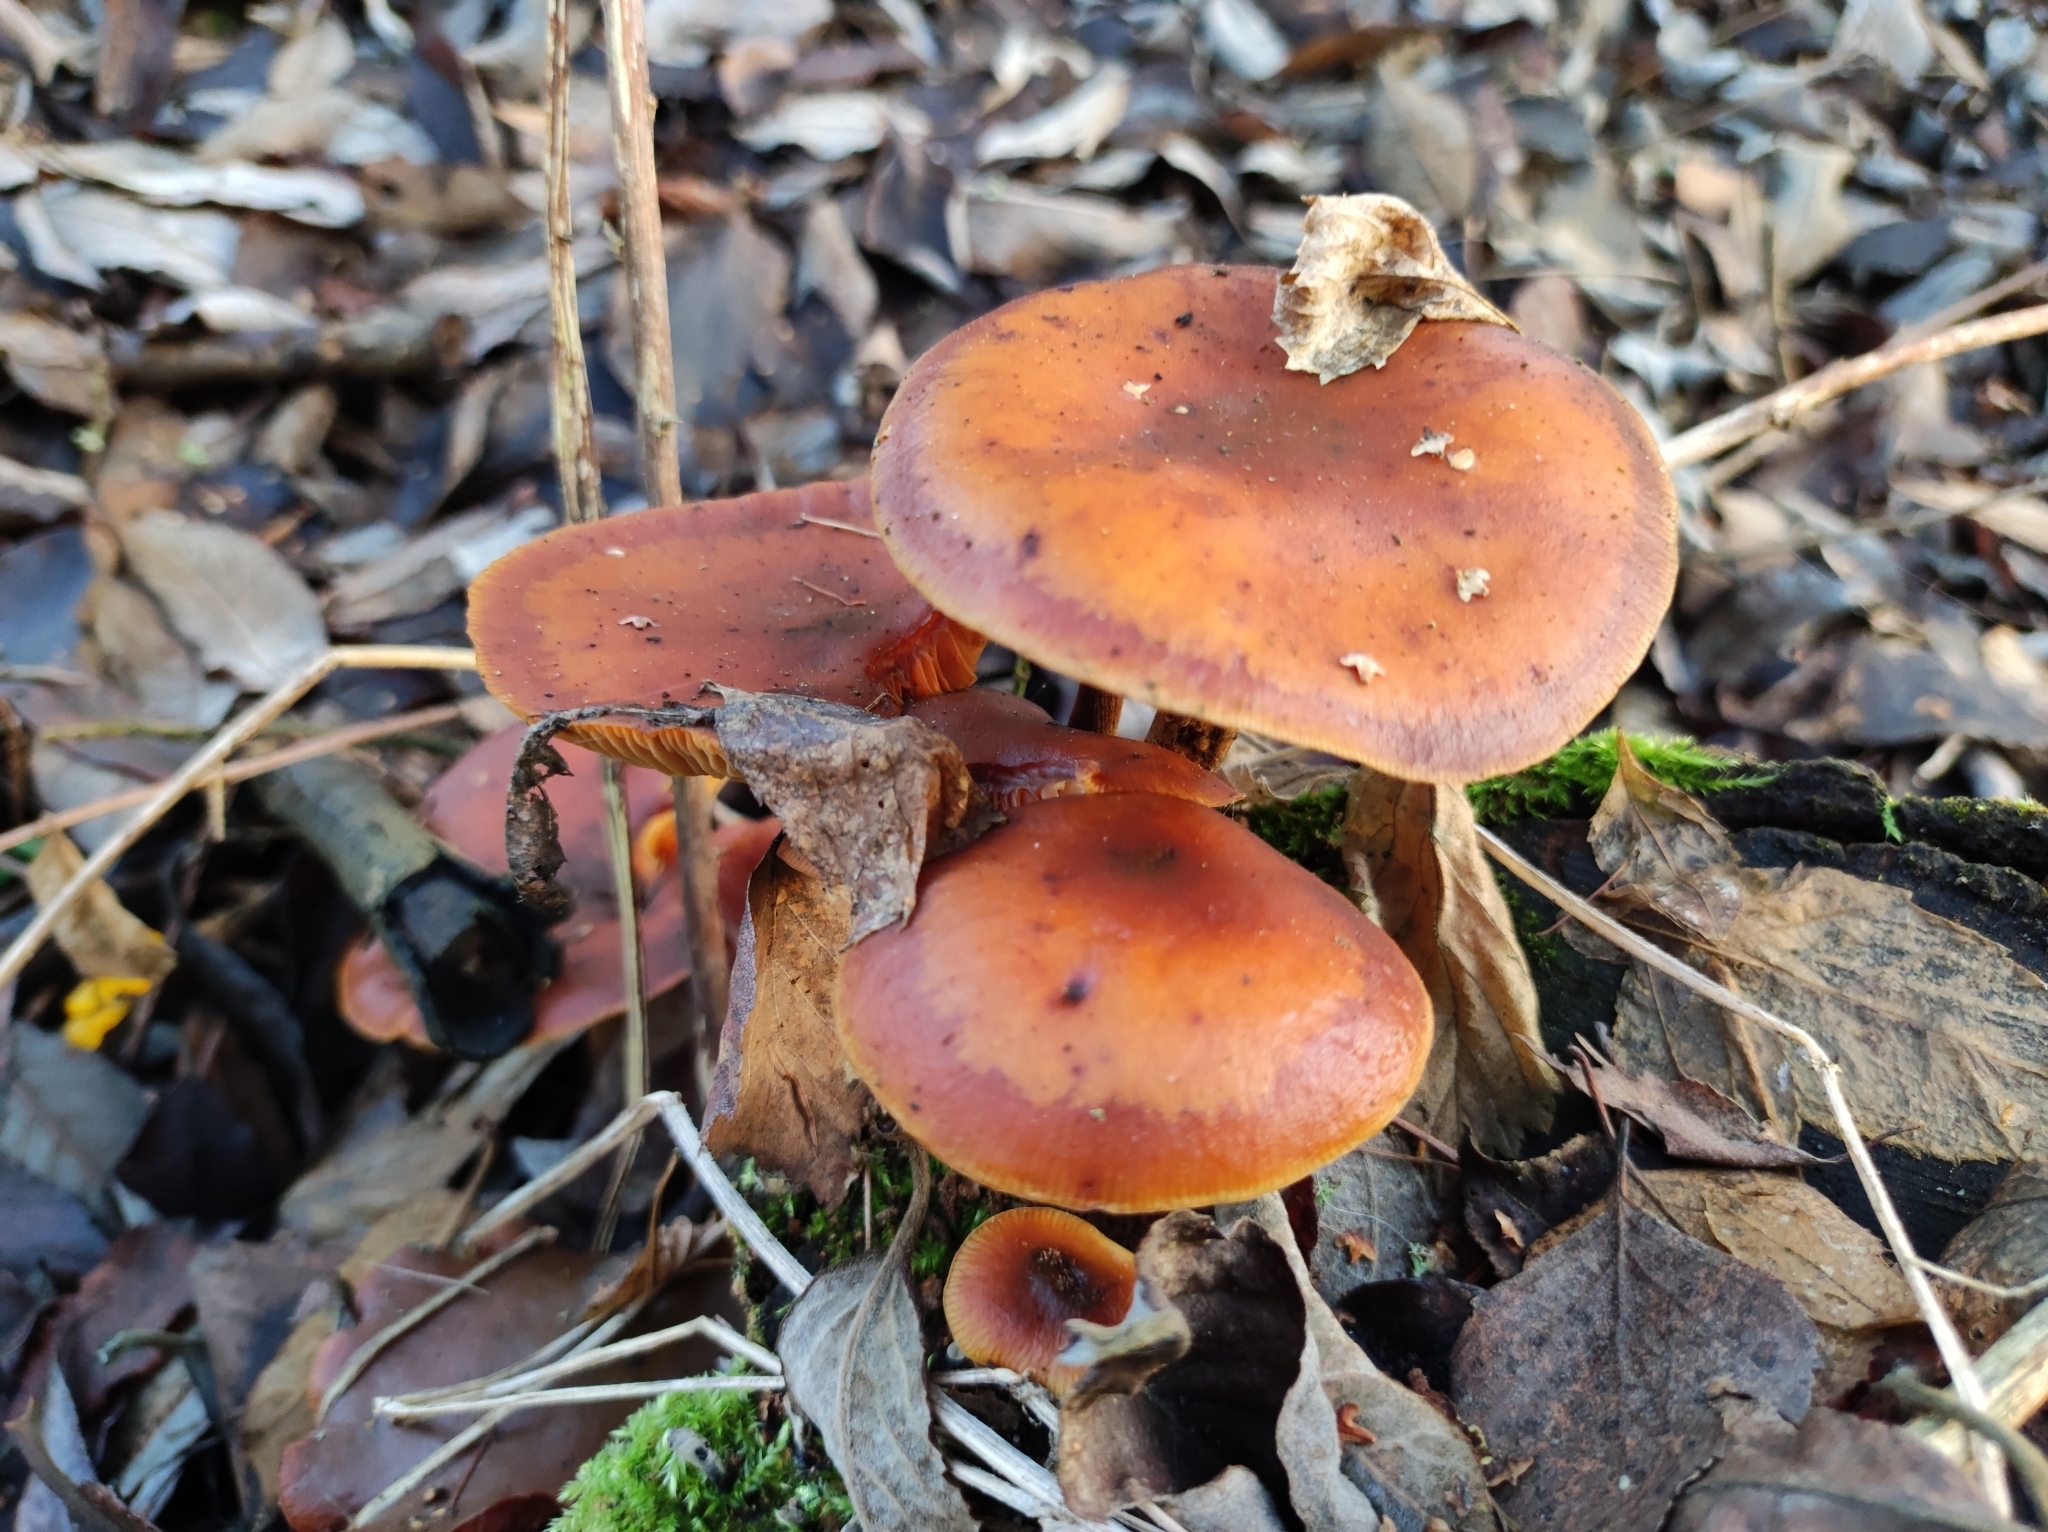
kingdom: Fungi
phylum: Basidiomycota
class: Agaricomycetes
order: Agaricales
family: Physalacriaceae
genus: Flammulina
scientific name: Flammulina
